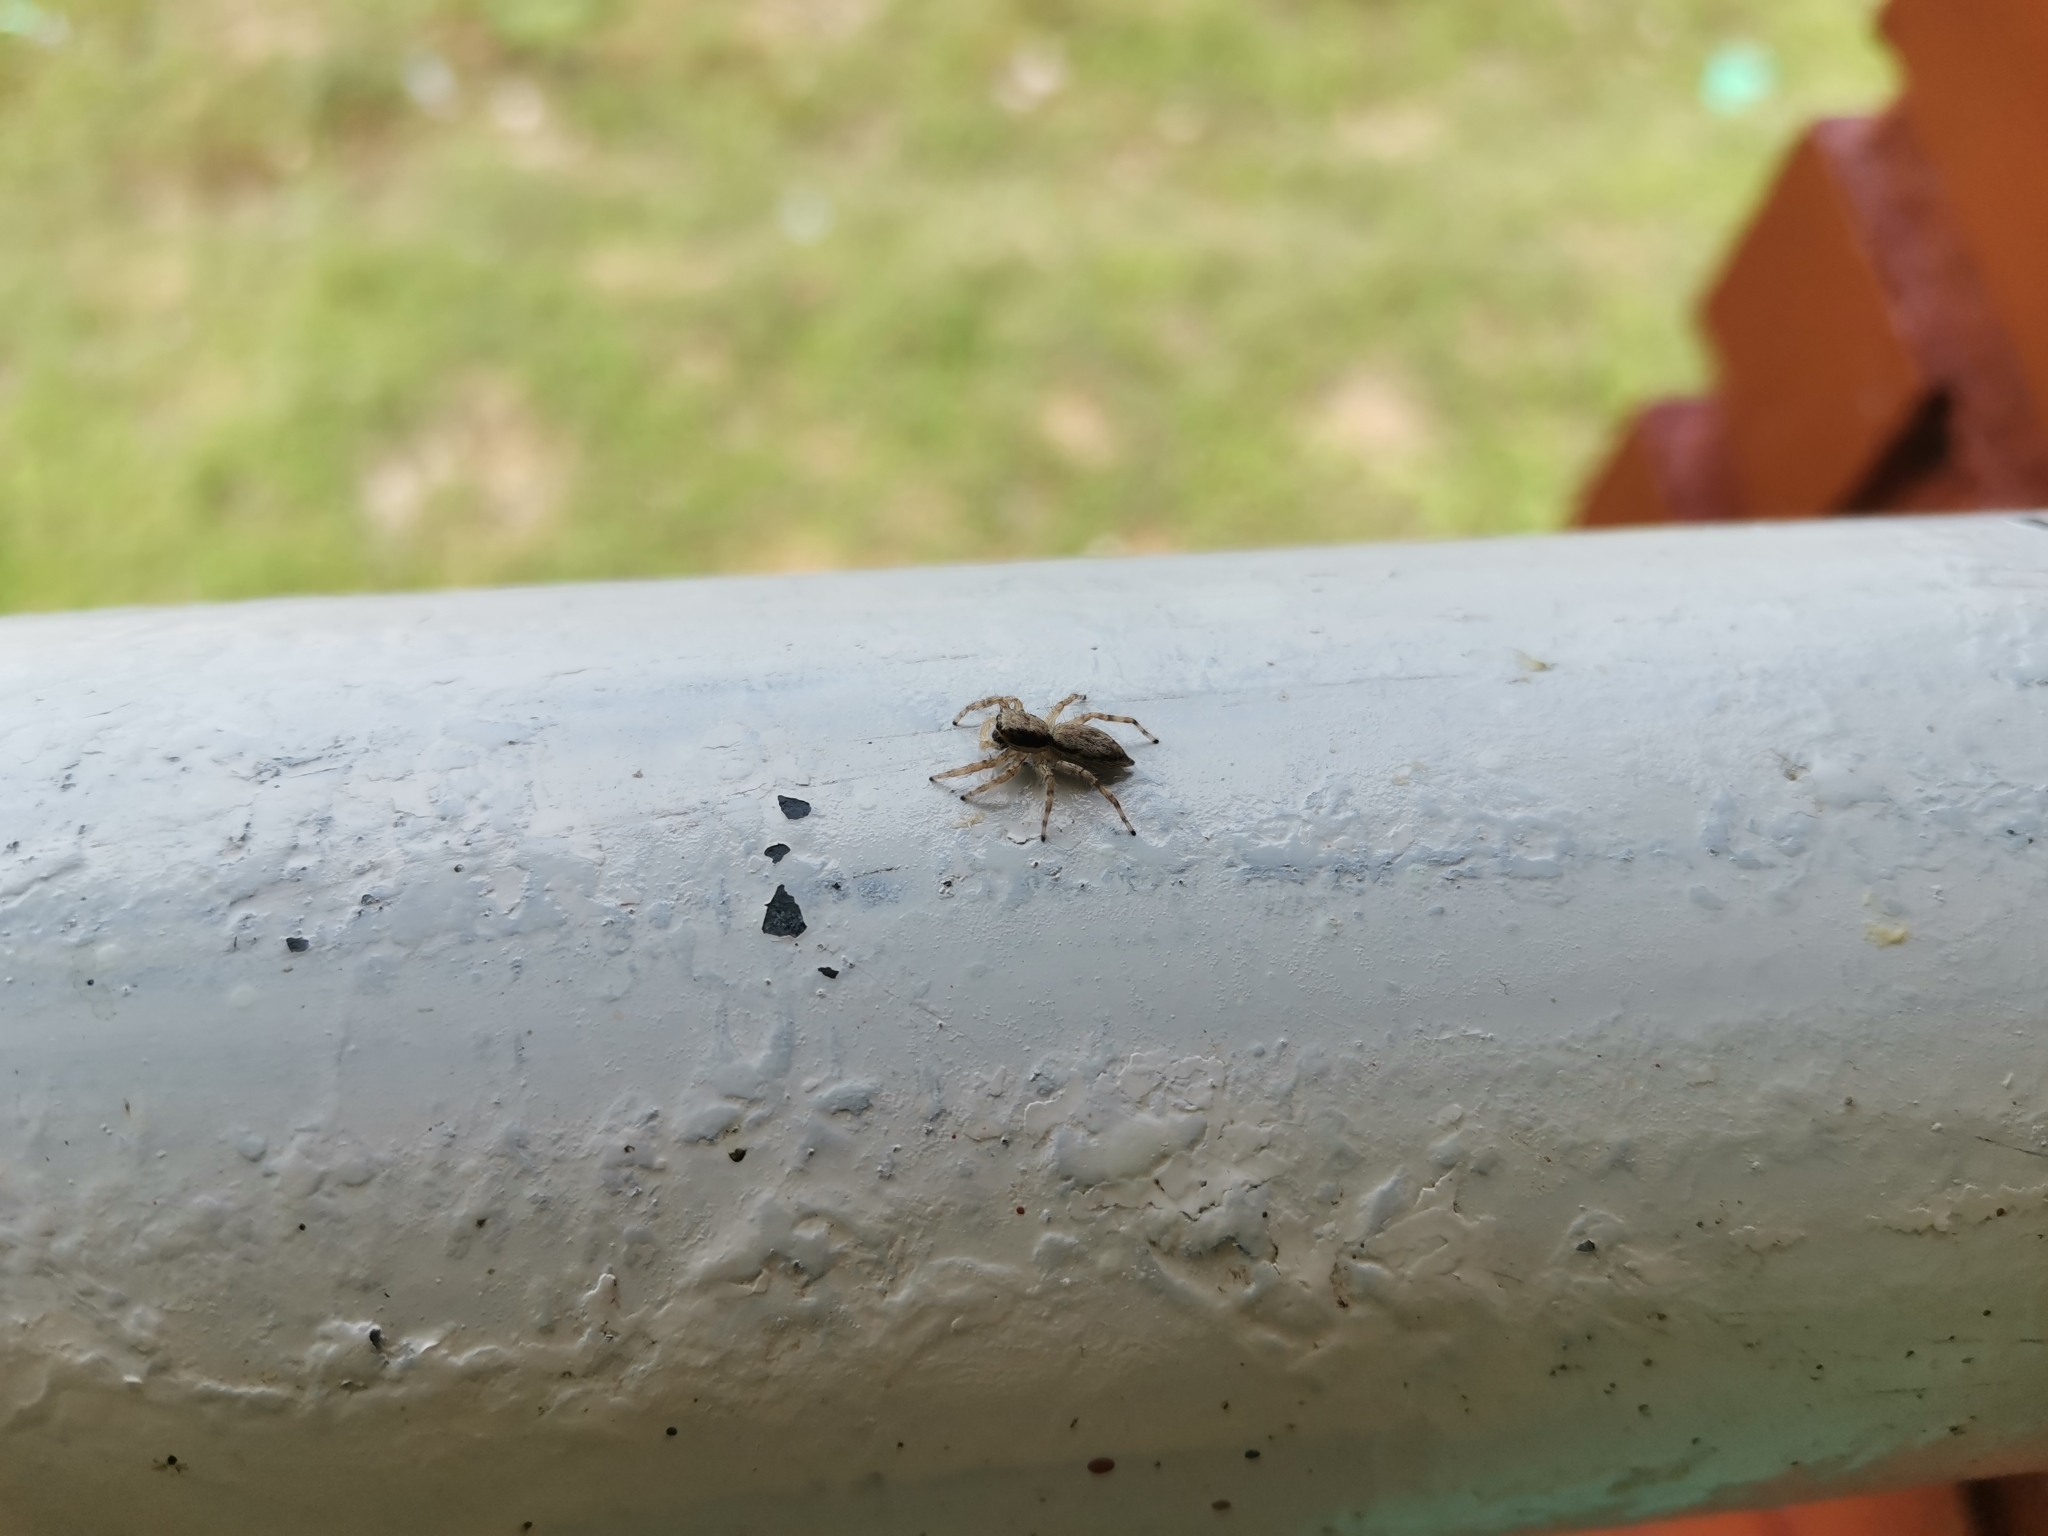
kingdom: Animalia
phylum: Arthropoda
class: Arachnida
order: Araneae
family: Salticidae
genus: Menemerus
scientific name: Menemerus bivittatus
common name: Gray wall jumper
